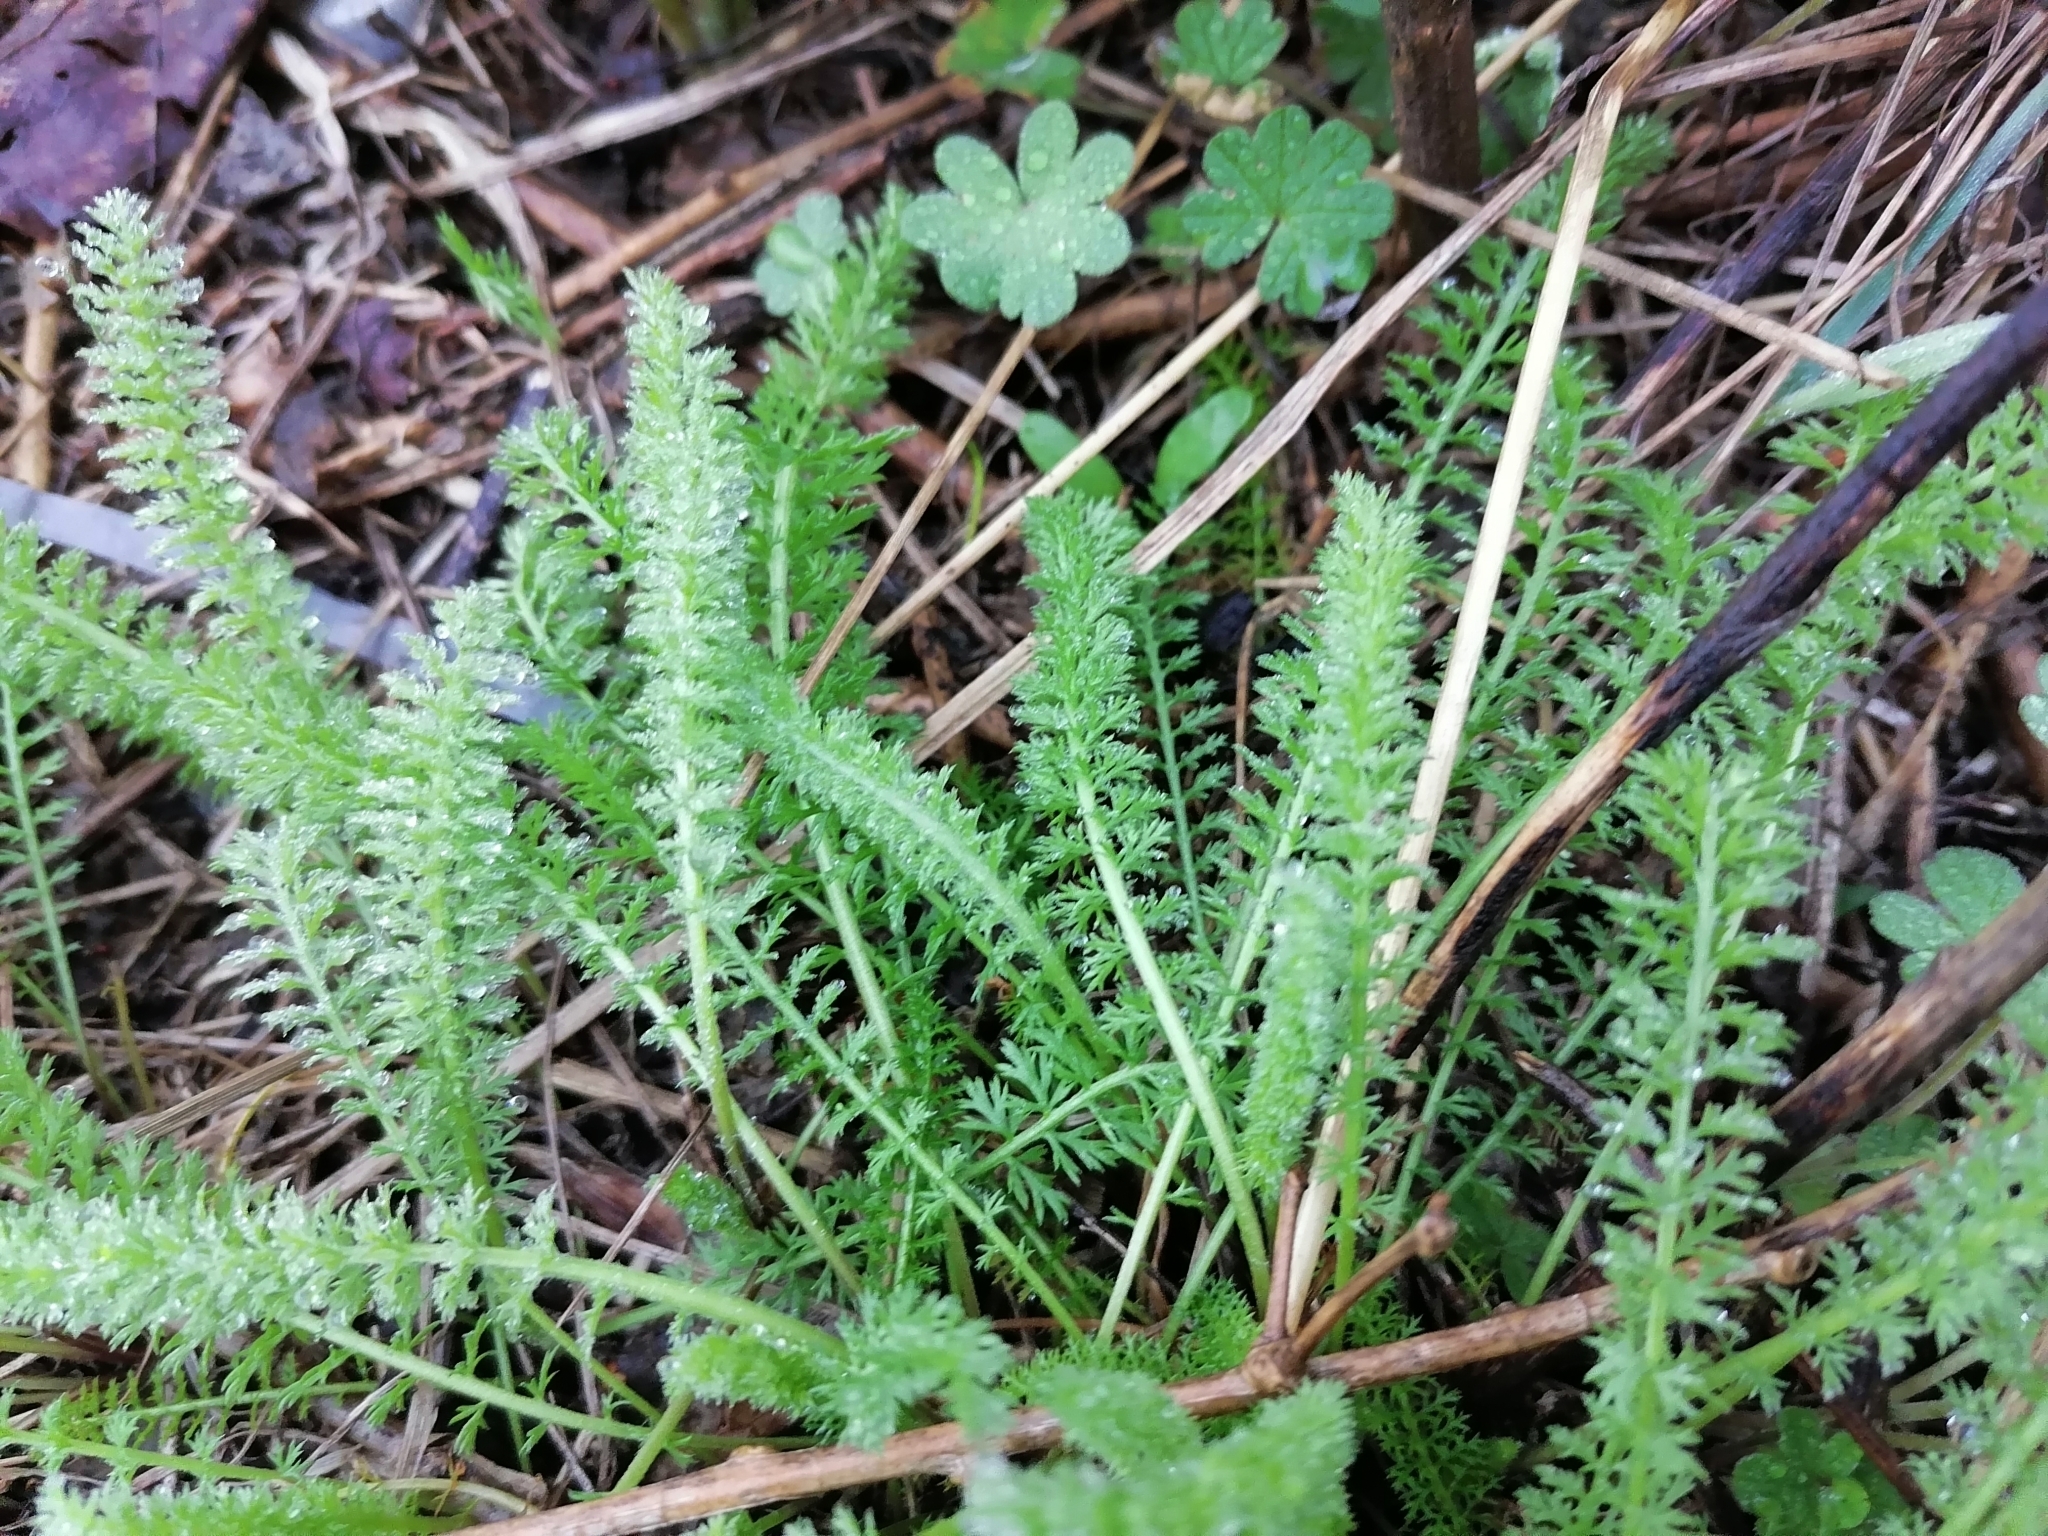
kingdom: Plantae
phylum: Tracheophyta
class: Magnoliopsida
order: Asterales
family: Asteraceae
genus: Achillea
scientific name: Achillea millefolium
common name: Yarrow
